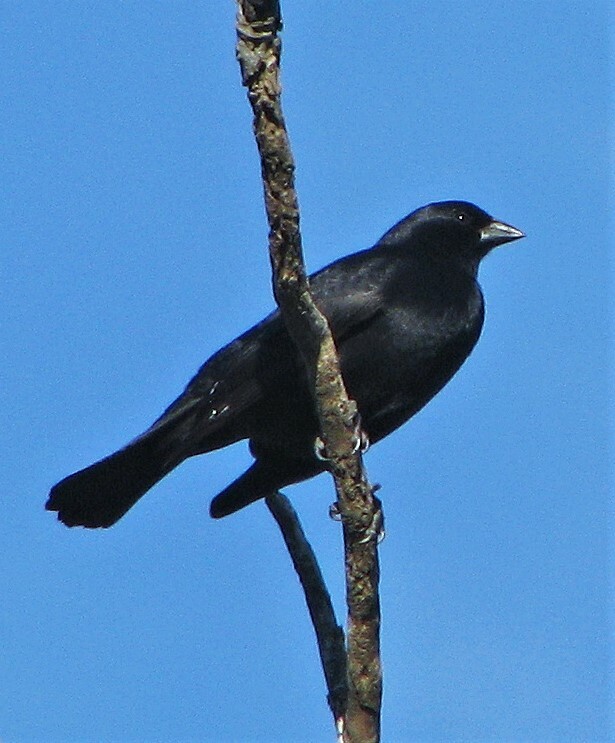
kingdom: Animalia
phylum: Chordata
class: Aves
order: Passeriformes
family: Icteridae
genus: Molothrus
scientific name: Molothrus rufoaxillaris
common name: Screaming cowbird
